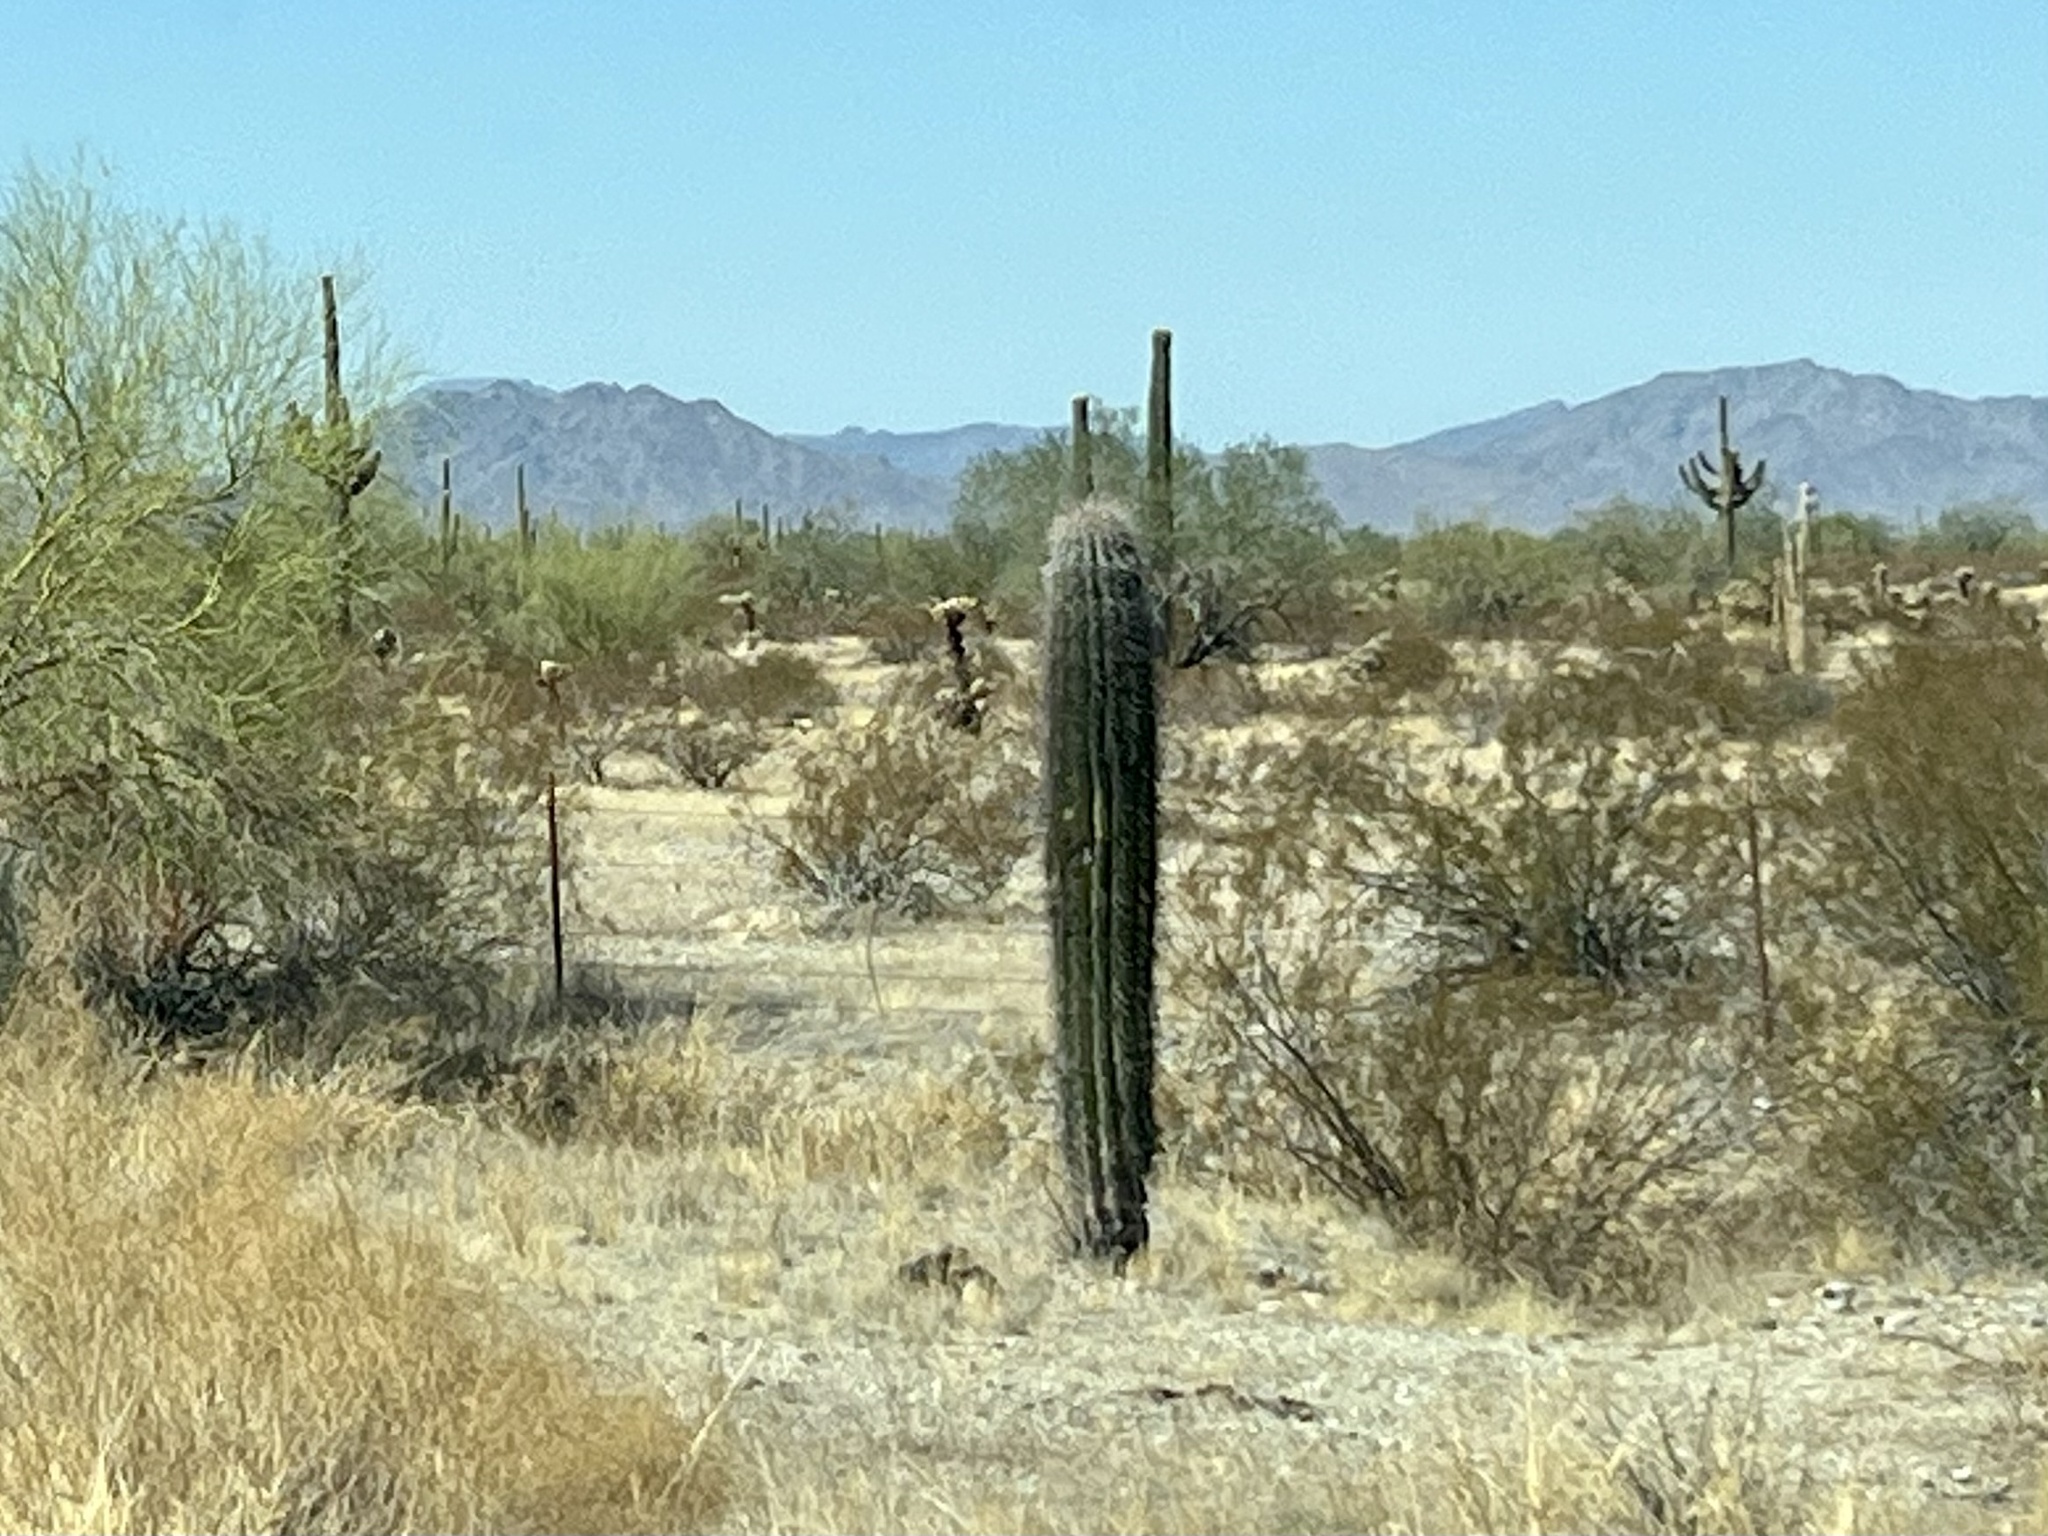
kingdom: Plantae
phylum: Tracheophyta
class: Magnoliopsida
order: Caryophyllales
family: Cactaceae
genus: Carnegiea
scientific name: Carnegiea gigantea
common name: Saguaro
